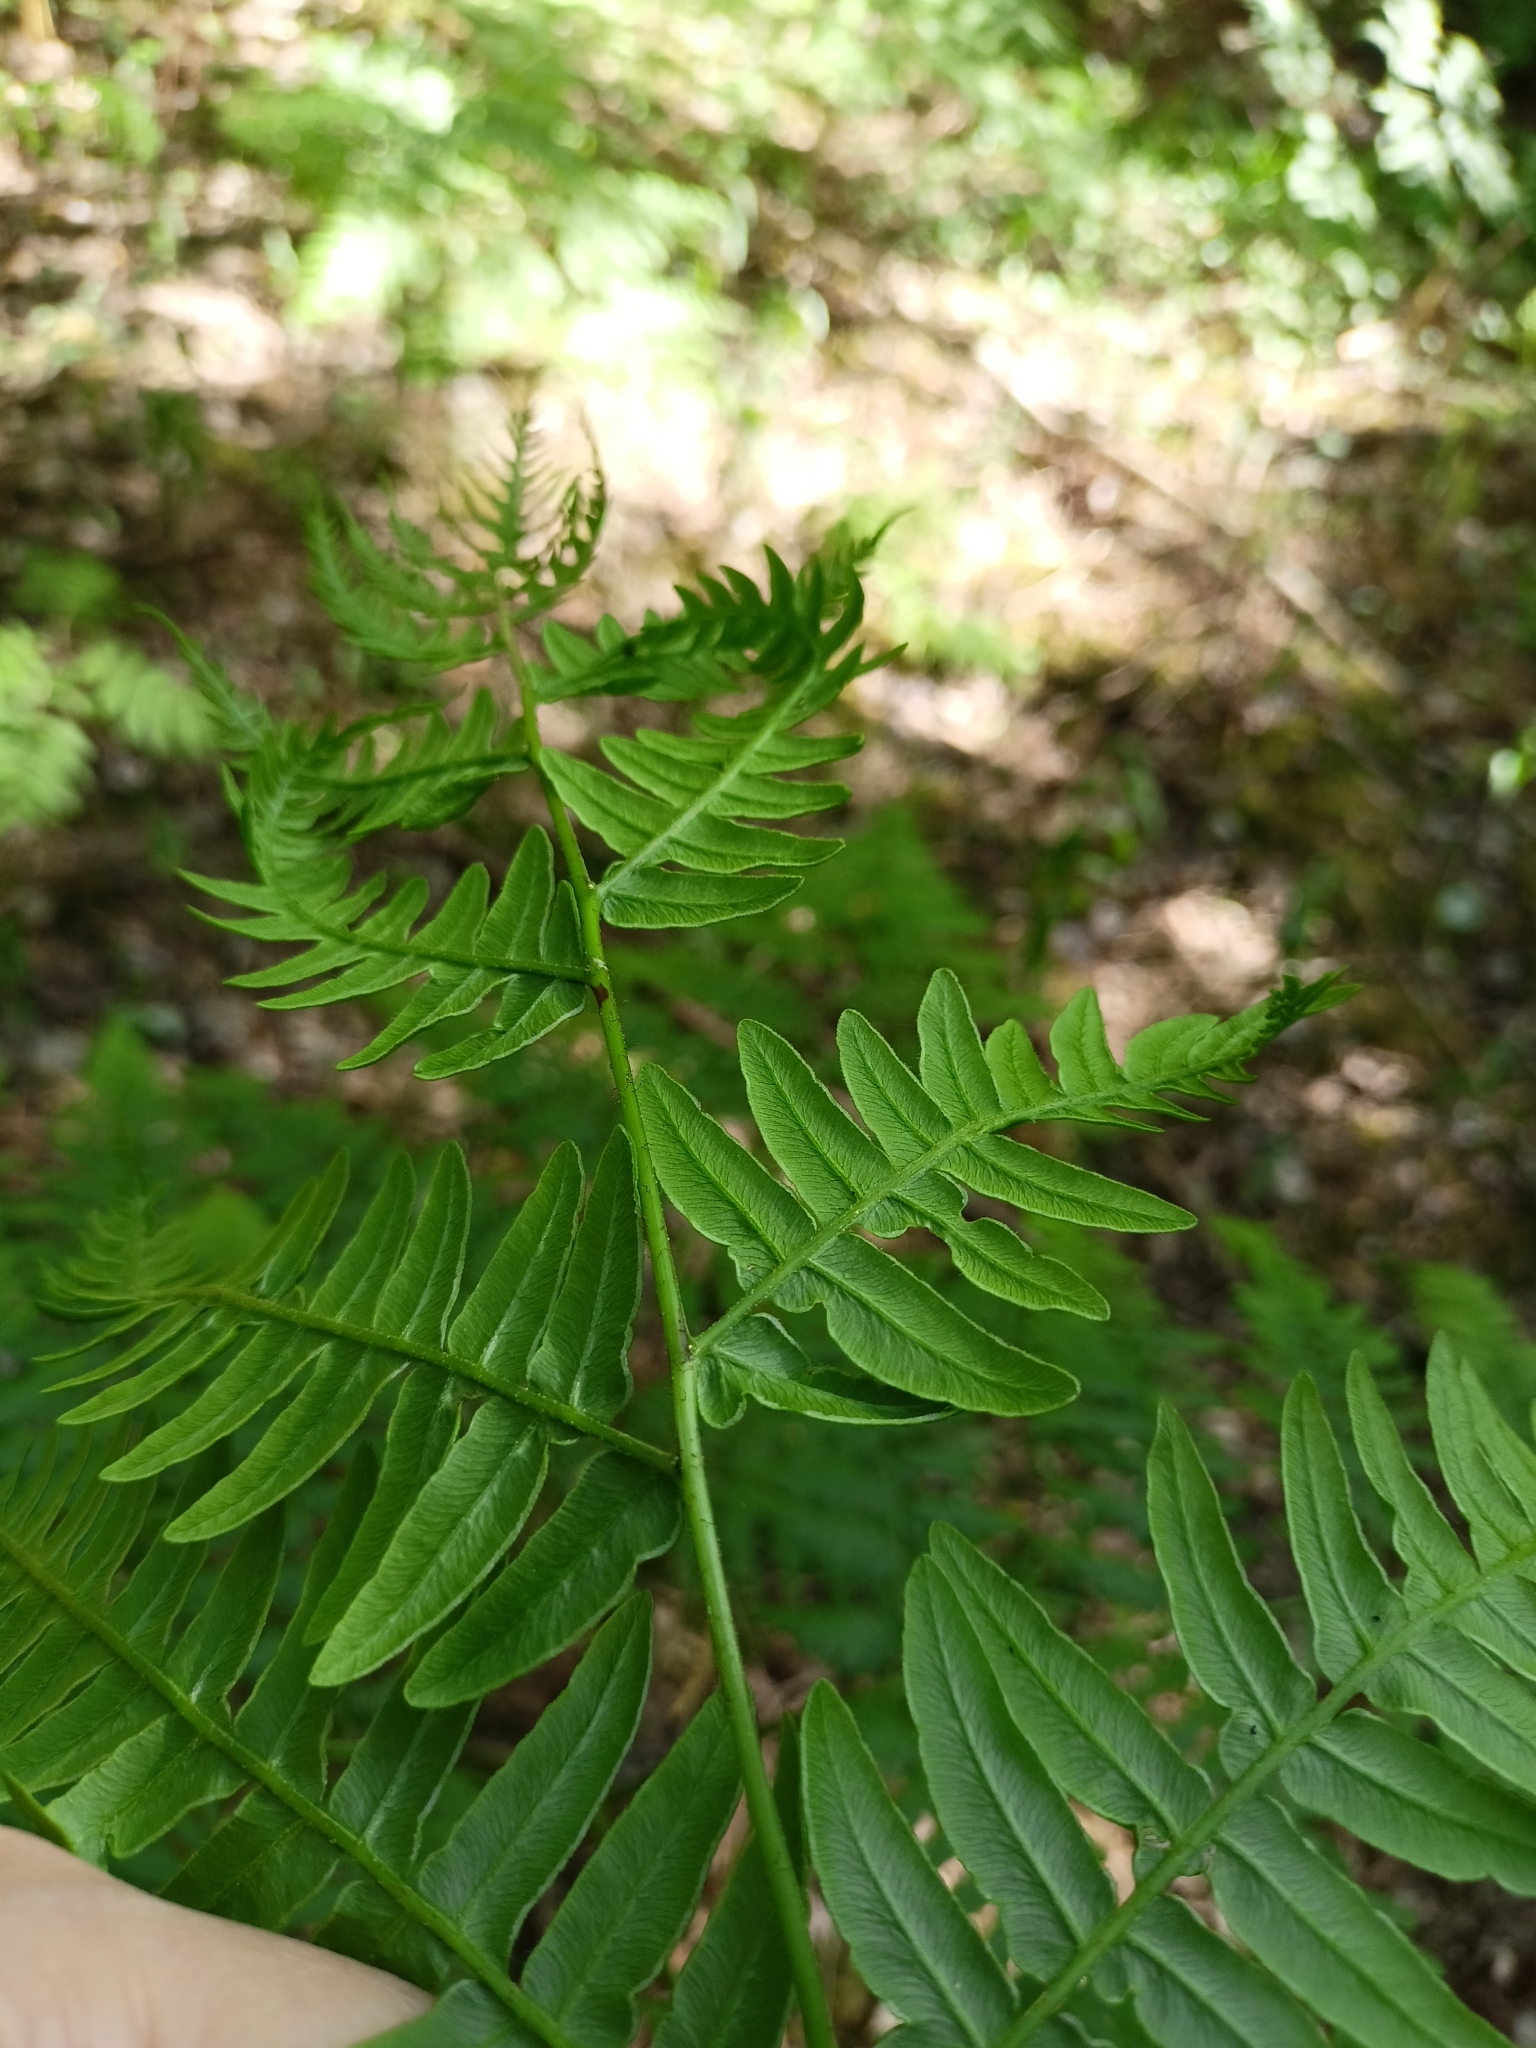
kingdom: Plantae
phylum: Tracheophyta
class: Polypodiopsida
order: Polypodiales
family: Dennstaedtiaceae
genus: Pteridium
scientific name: Pteridium aquilinum
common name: Bracken
